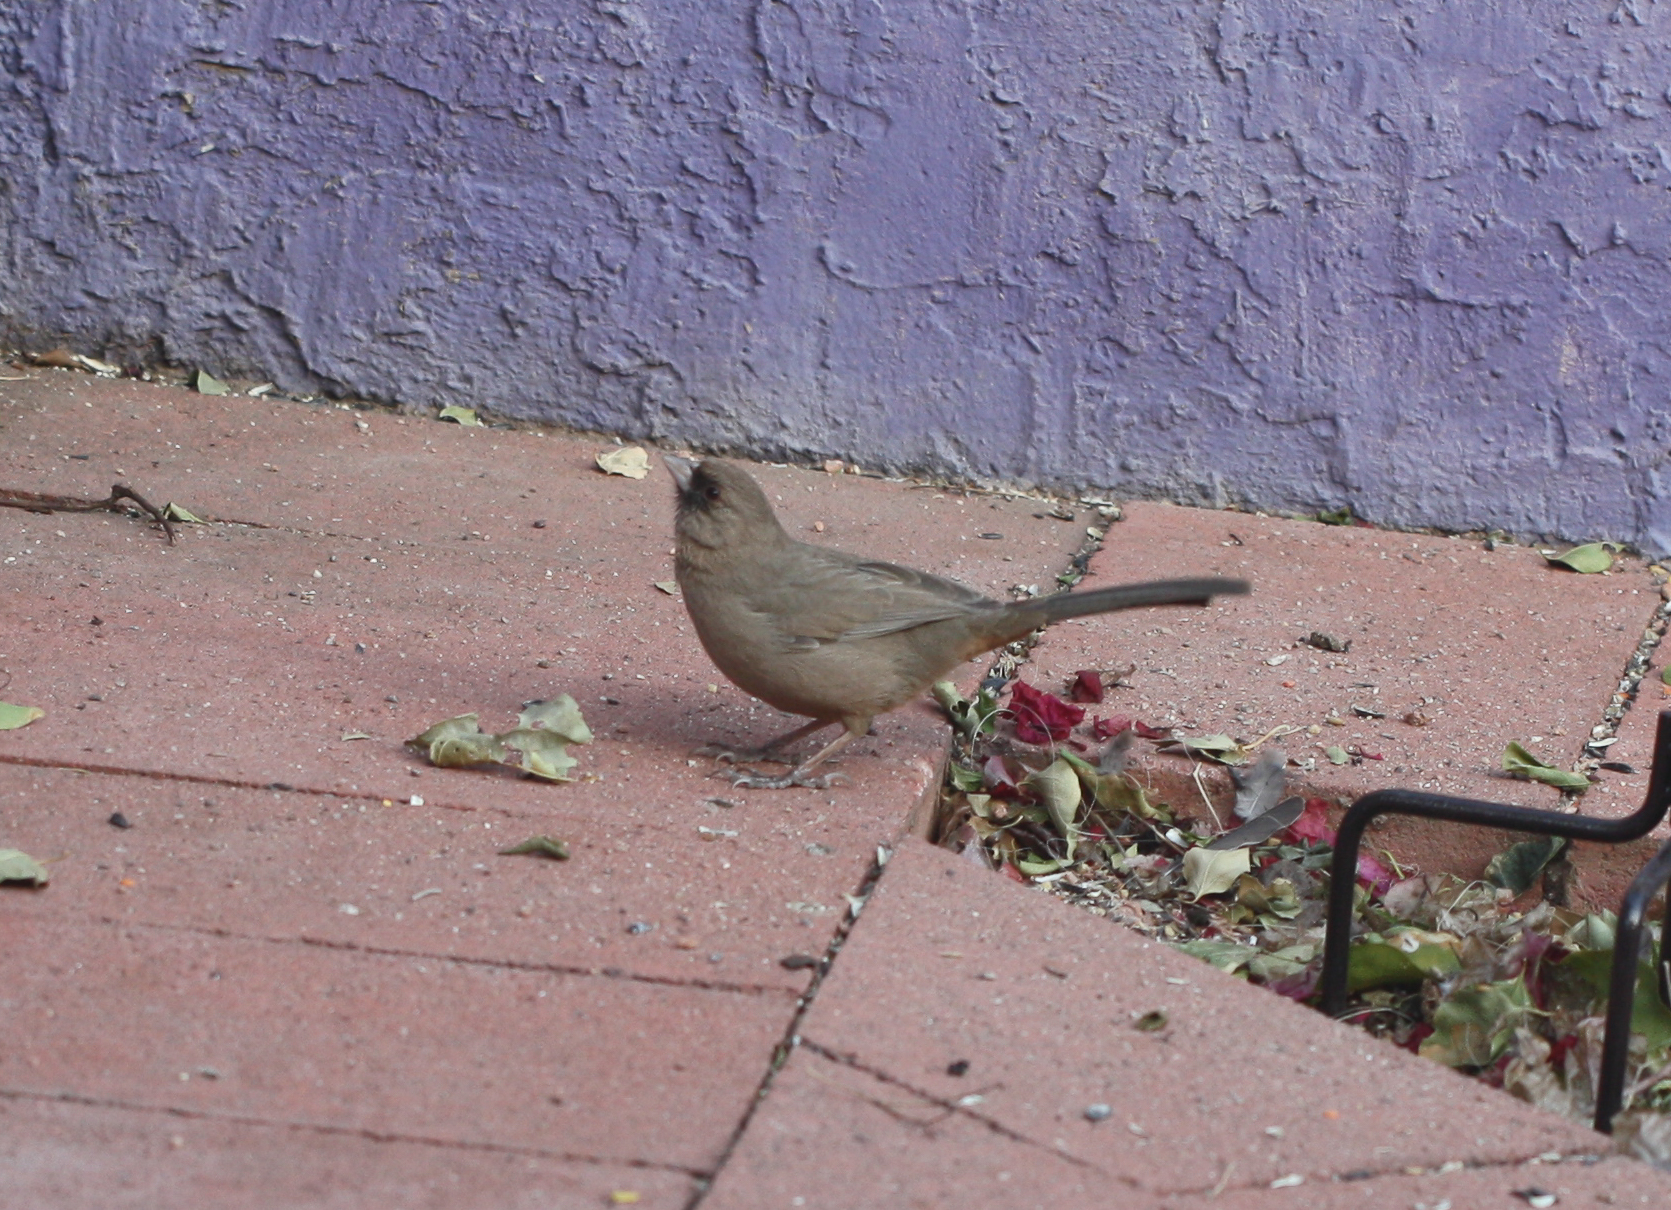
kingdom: Animalia
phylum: Chordata
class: Aves
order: Passeriformes
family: Passerellidae
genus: Melozone
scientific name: Melozone aberti
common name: Abert's towhee
